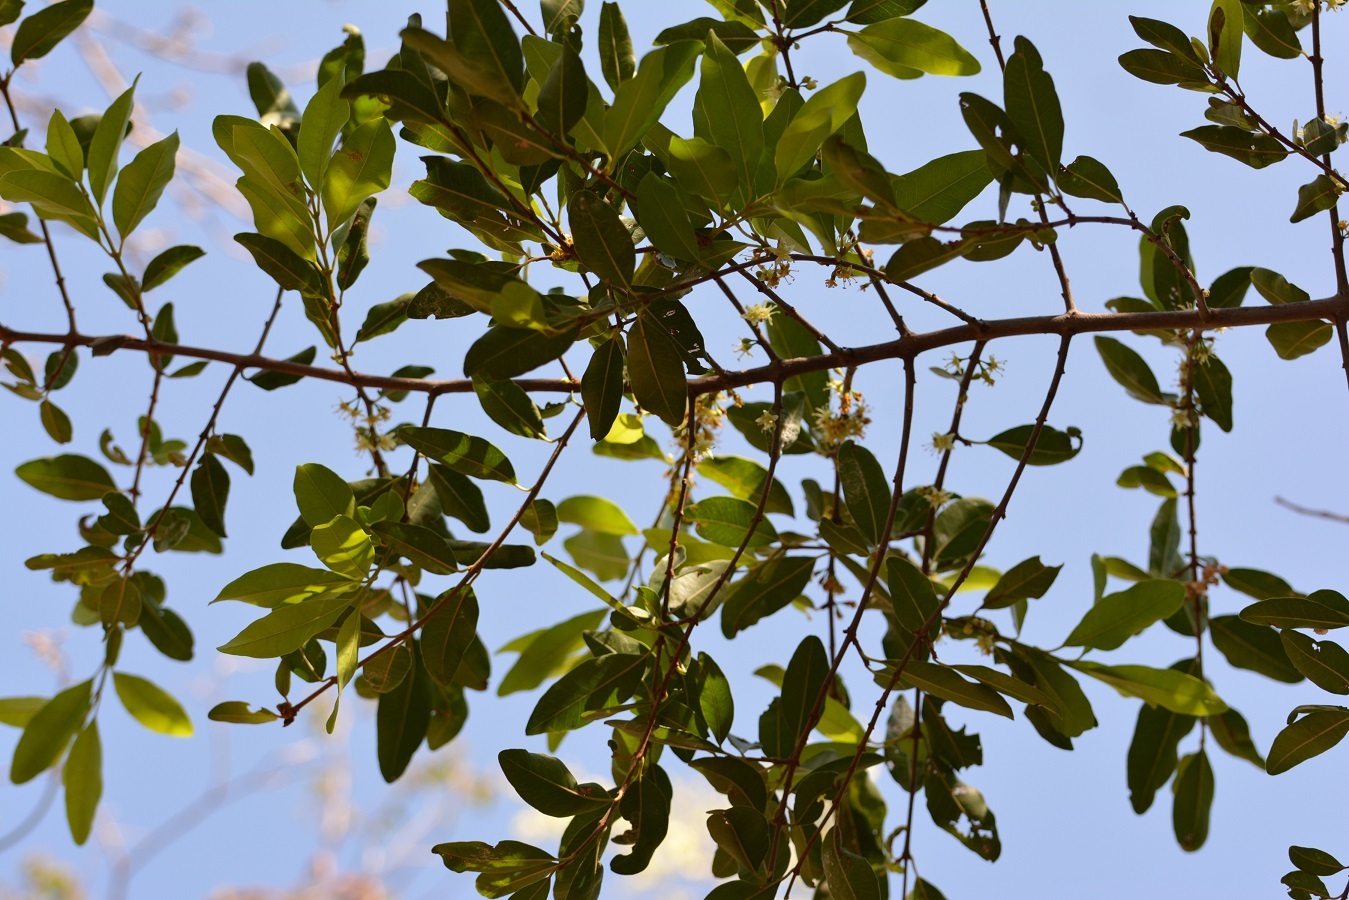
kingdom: Plantae
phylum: Tracheophyta
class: Magnoliopsida
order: Malpighiales
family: Erythroxylaceae
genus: Erythroxylum
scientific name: Erythroxylum mexicanum
